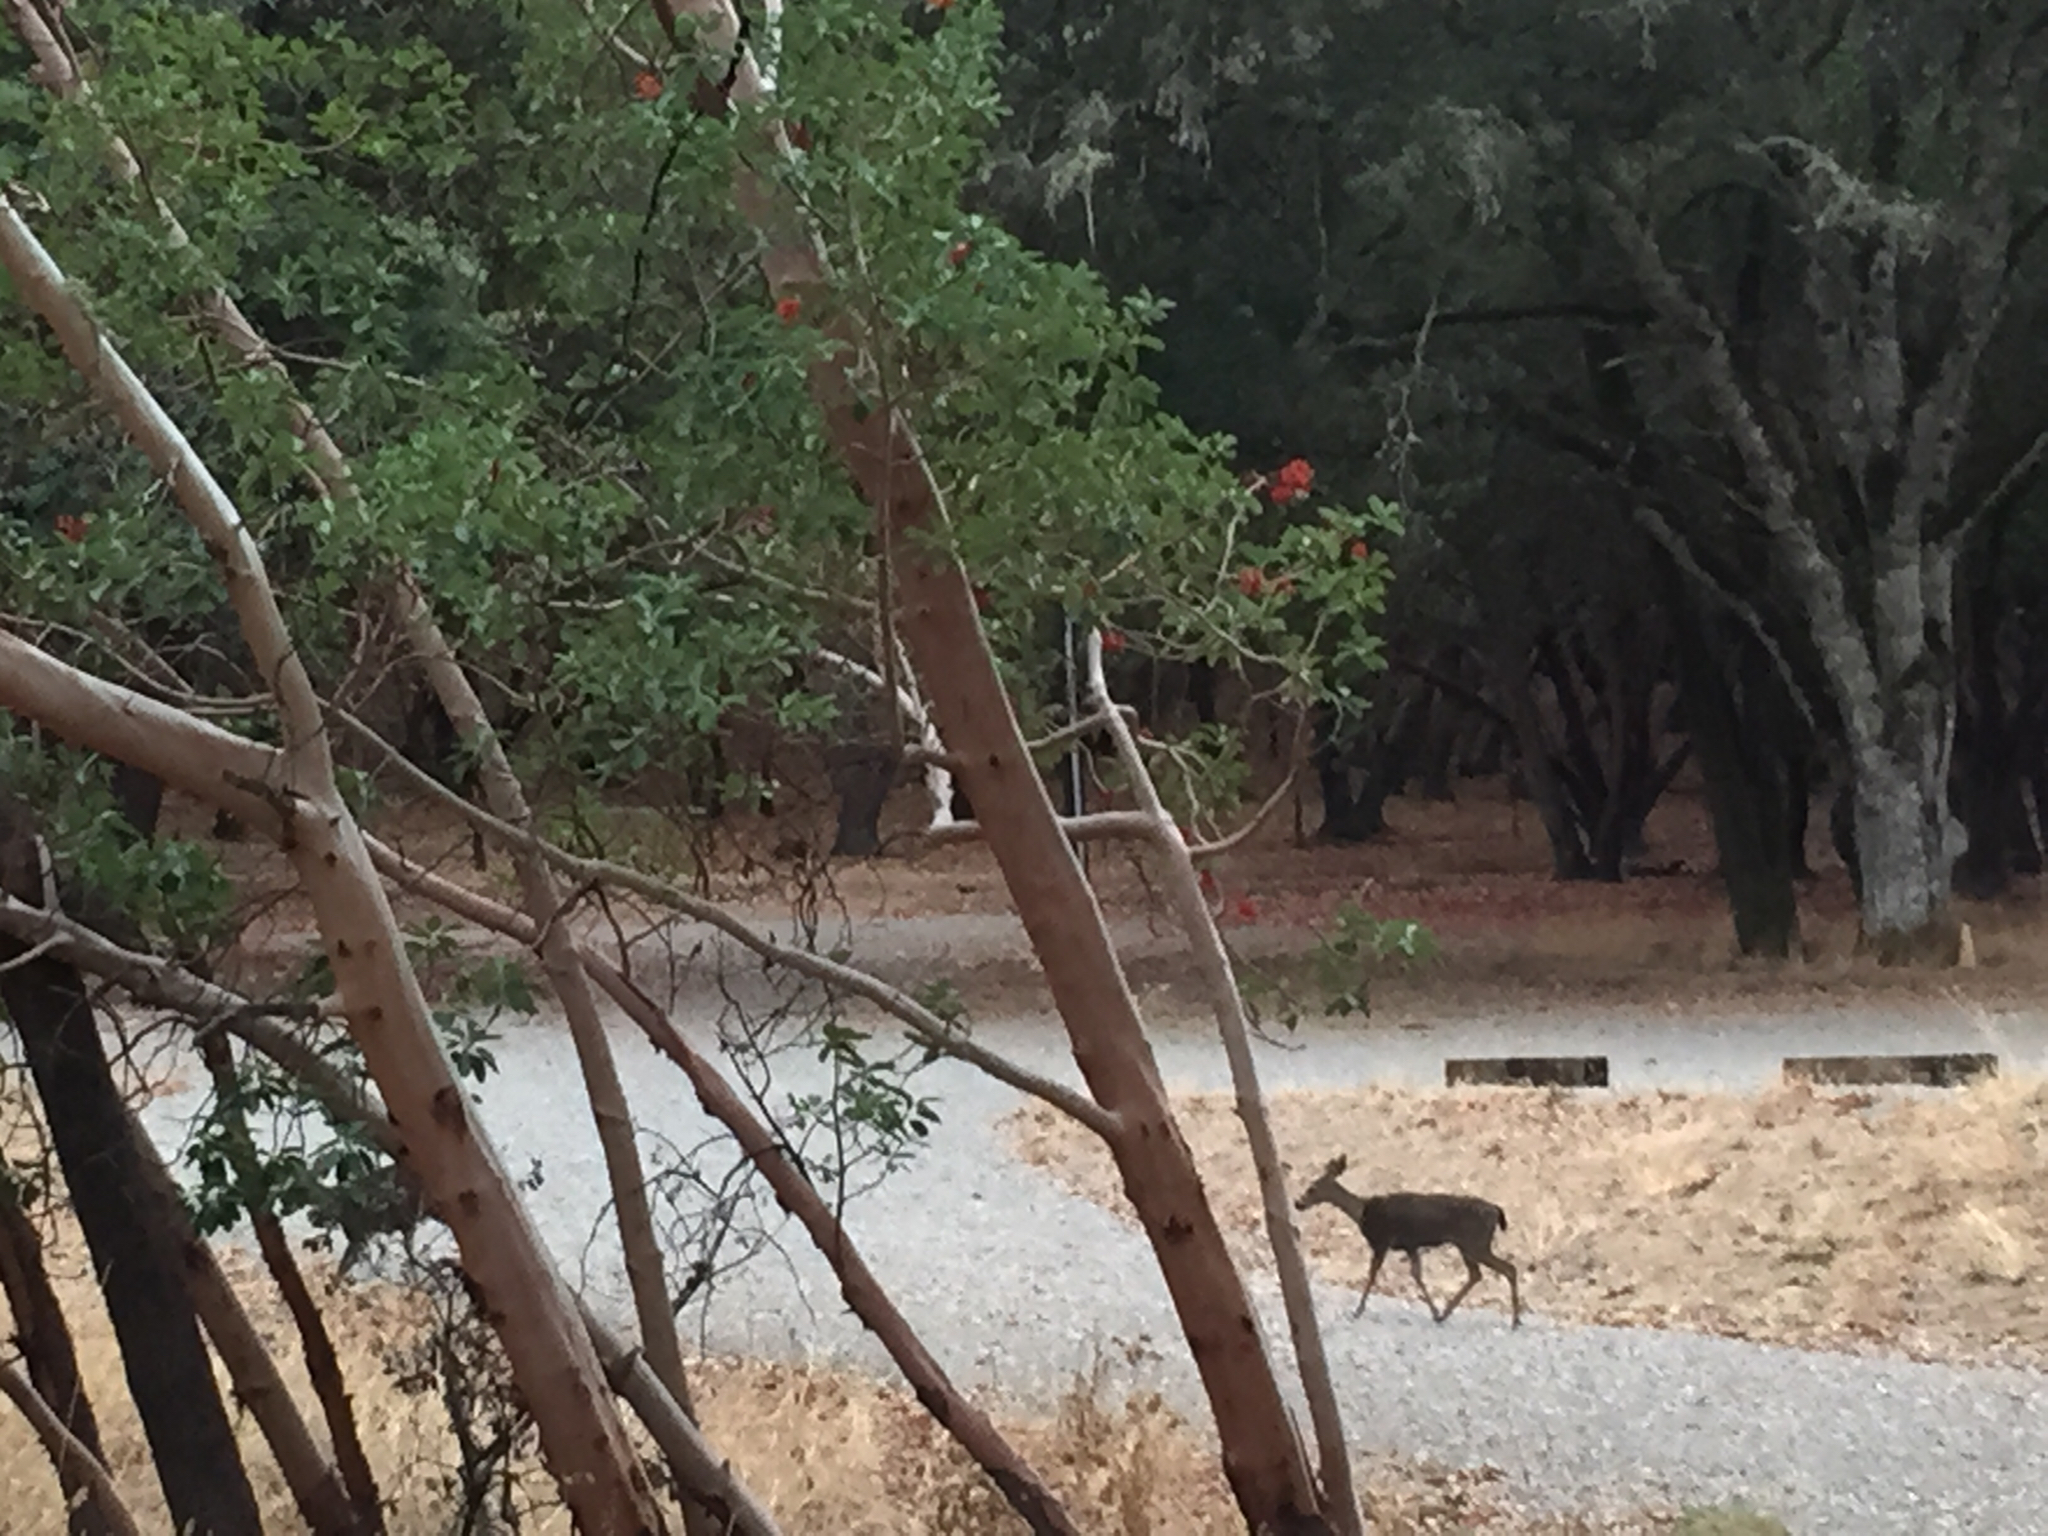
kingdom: Animalia
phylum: Chordata
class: Mammalia
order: Artiodactyla
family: Cervidae
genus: Odocoileus
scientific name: Odocoileus hemionus
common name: Mule deer
